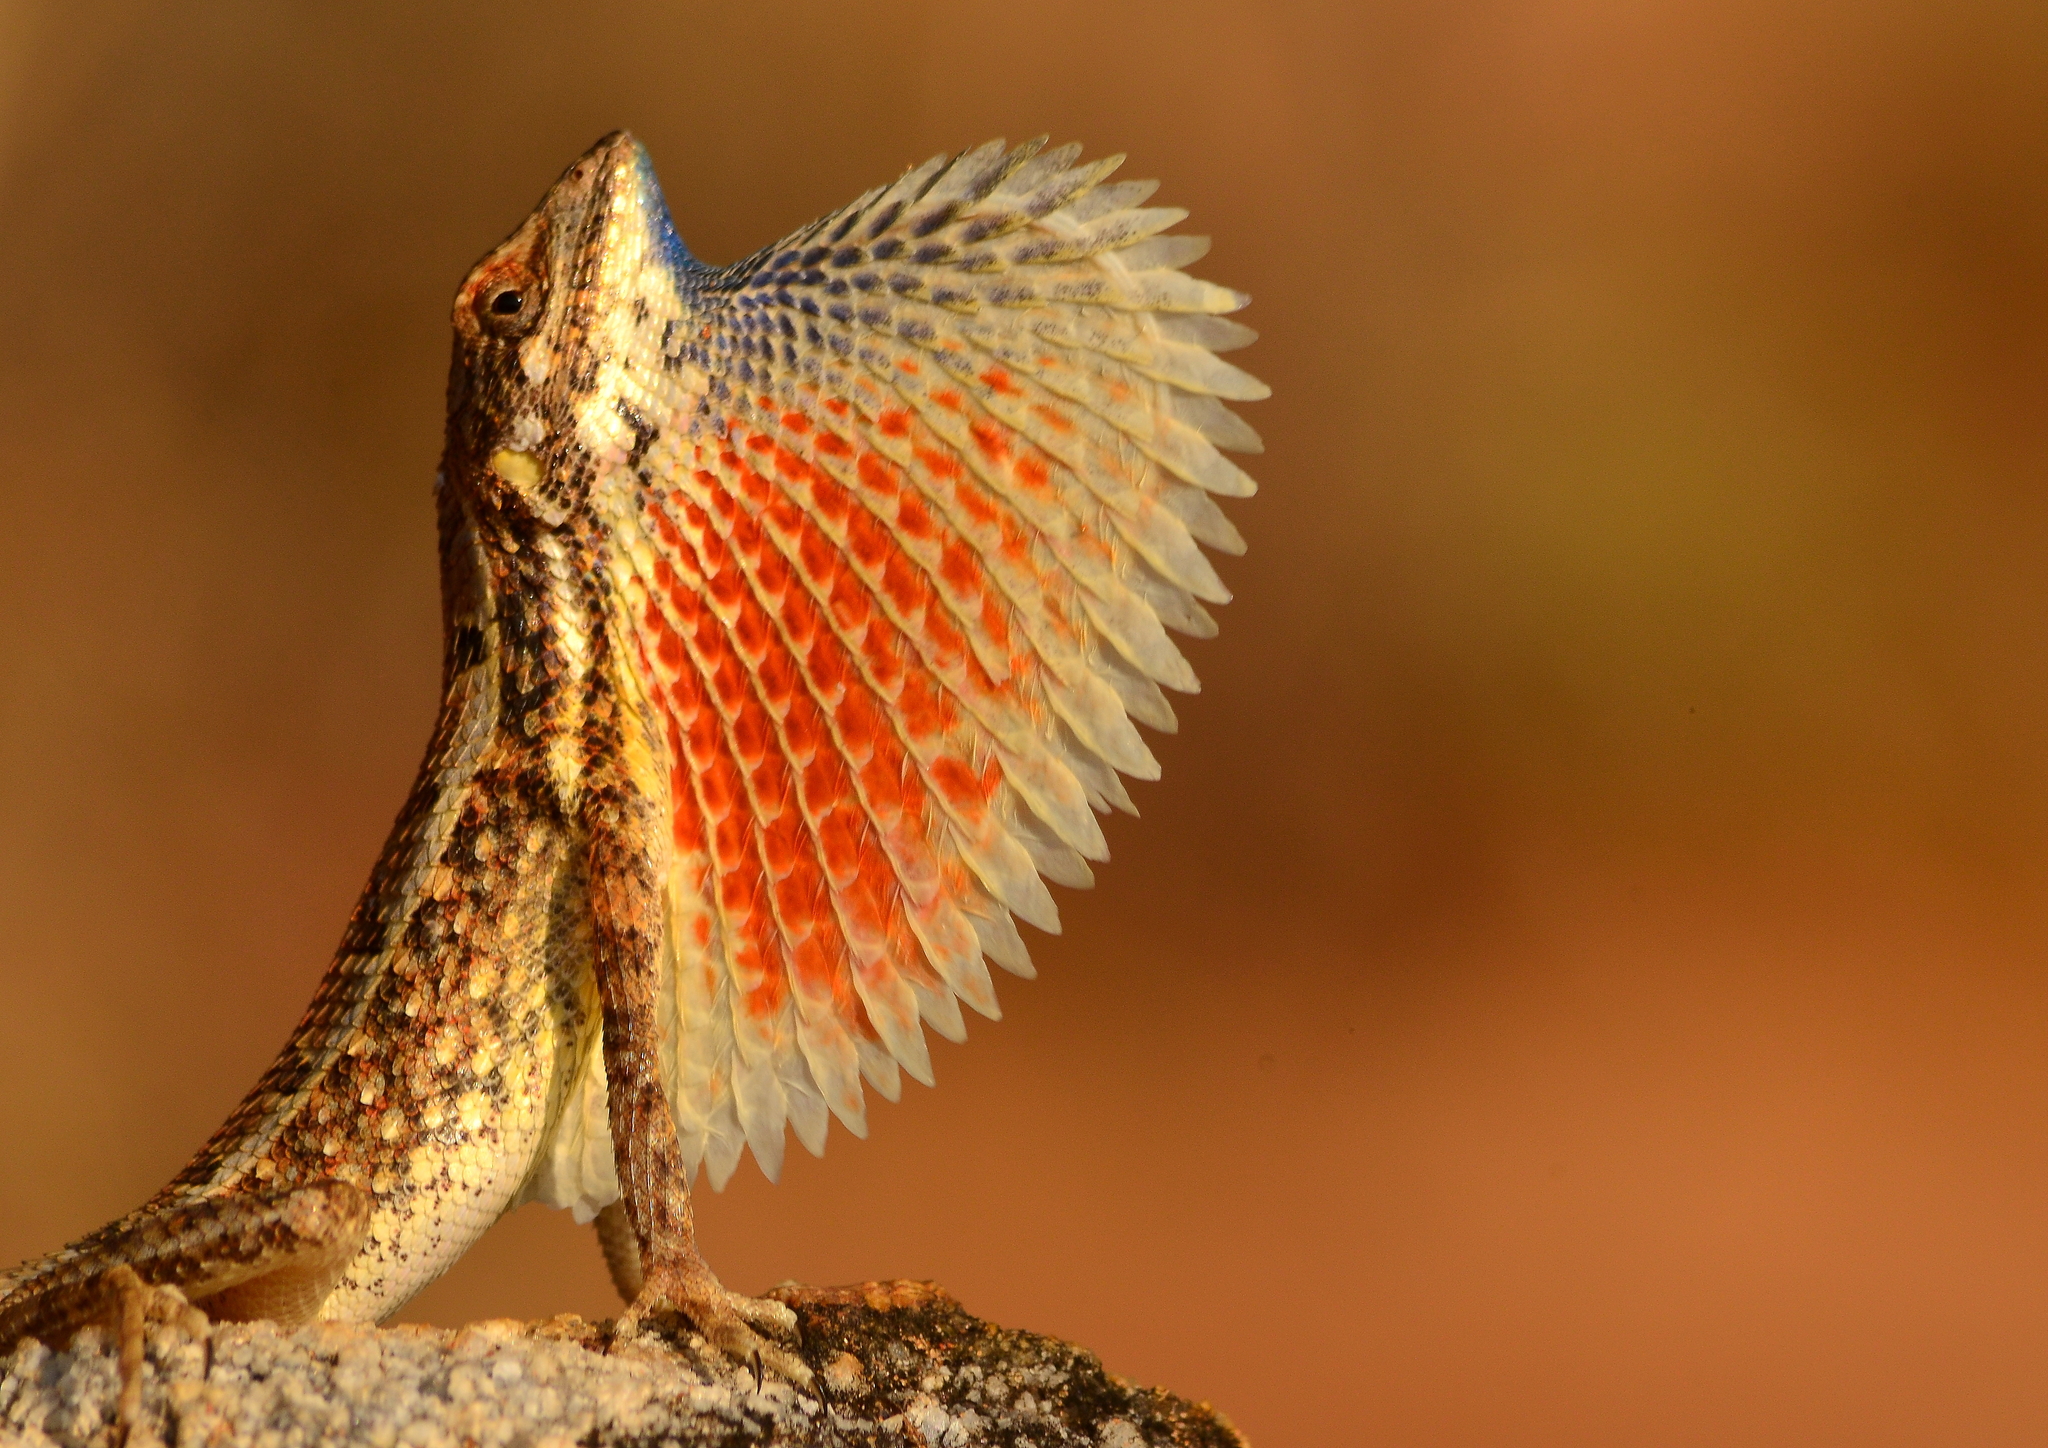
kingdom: Animalia
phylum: Chordata
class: Squamata
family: Agamidae
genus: Sitana
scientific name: Sitana marudhamneydhal
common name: Attenborough’s fan-throated lizard
